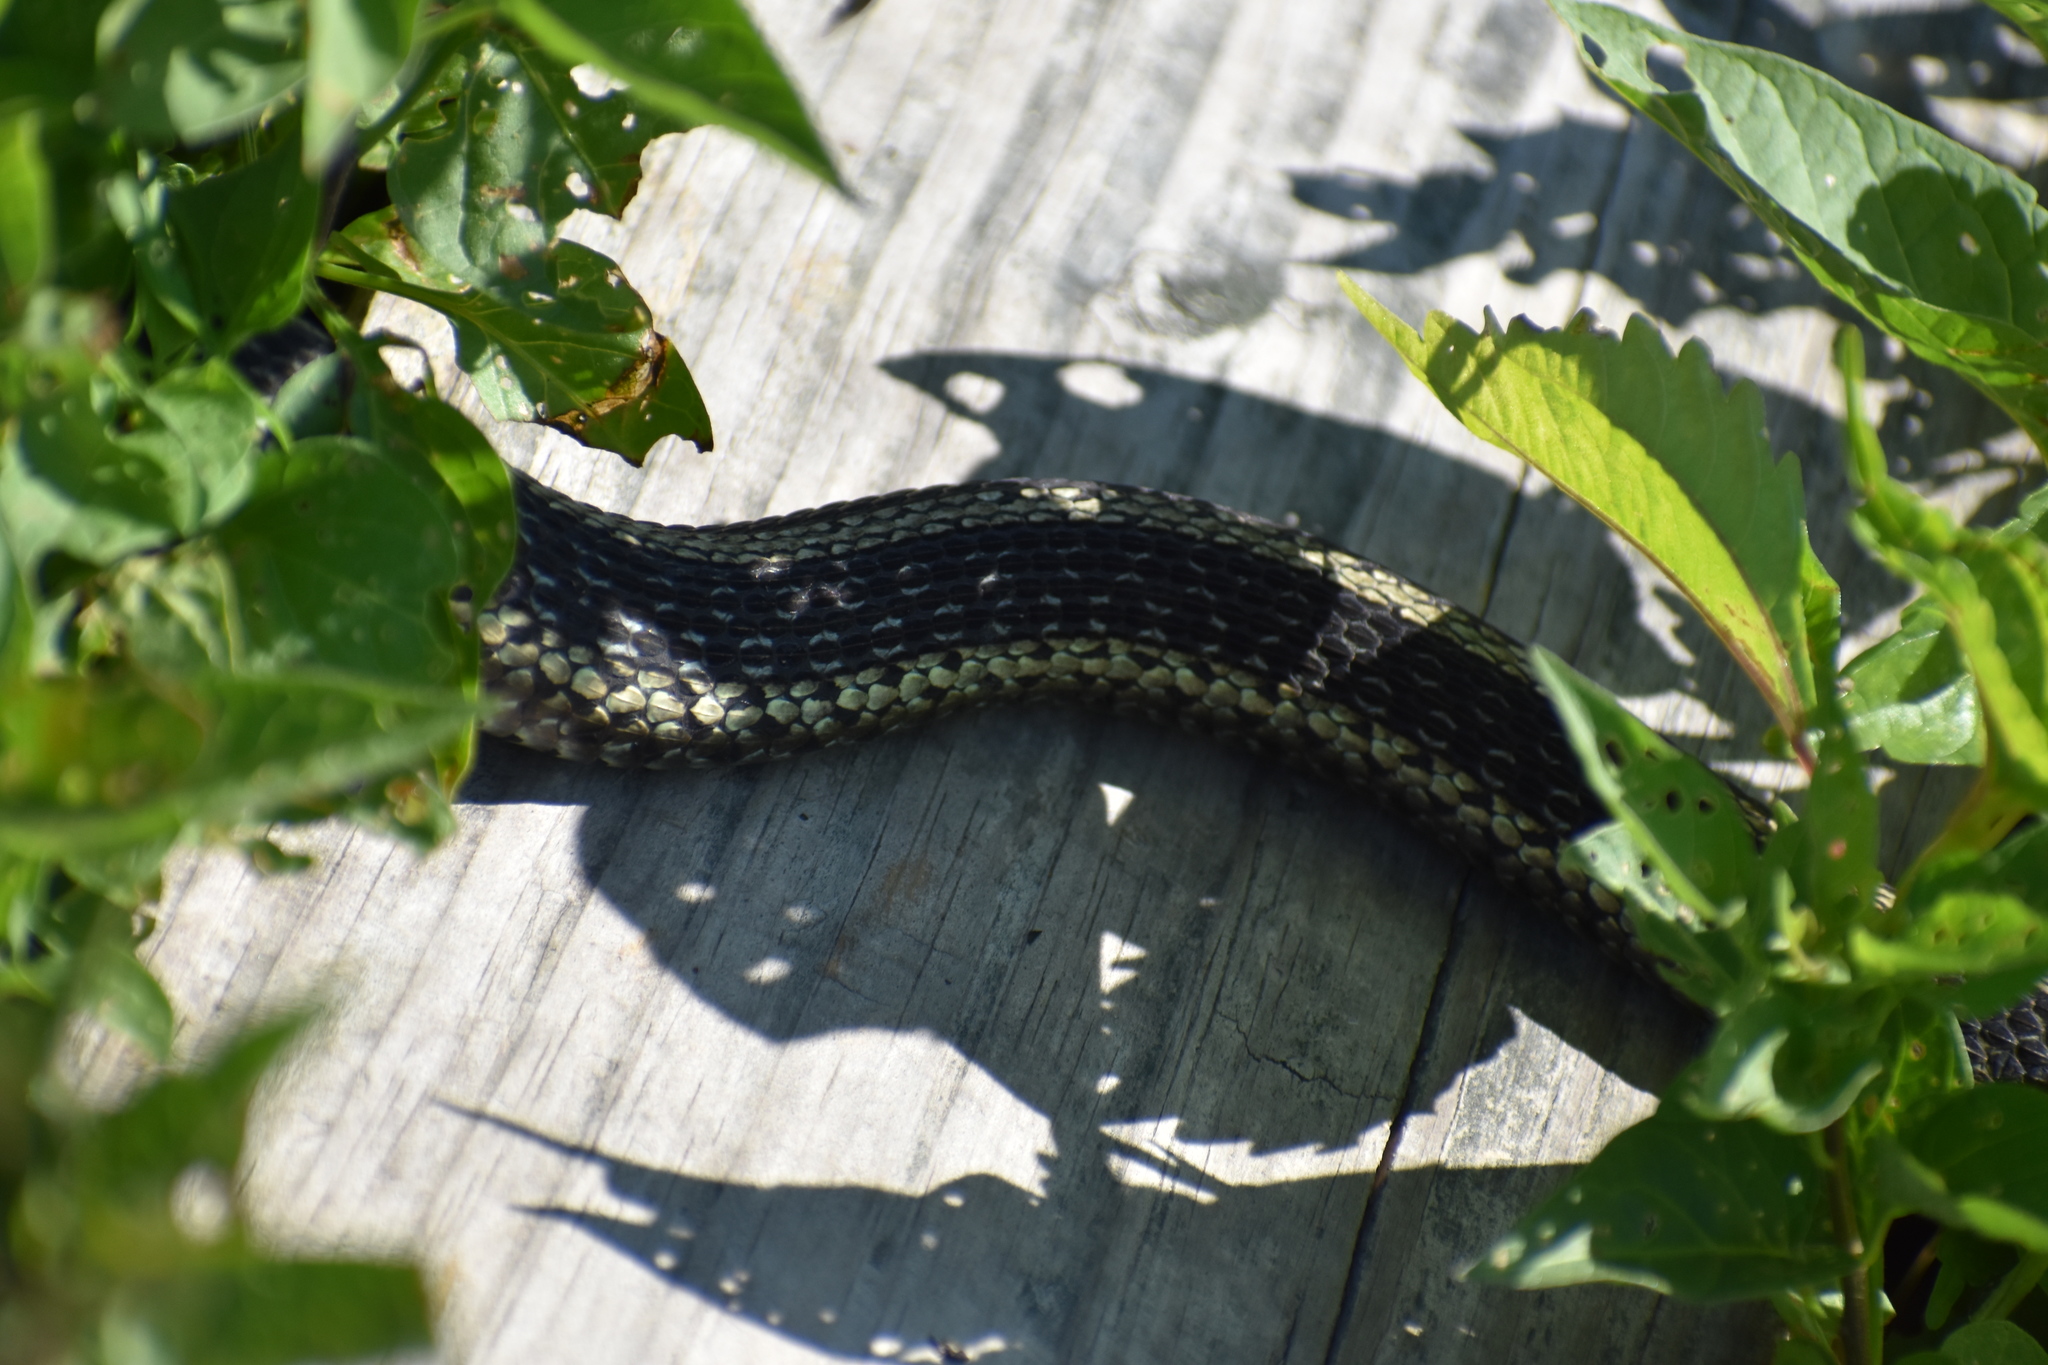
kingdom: Animalia
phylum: Chordata
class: Squamata
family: Colubridae
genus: Thamnophis
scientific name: Thamnophis sirtalis
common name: Common garter snake
